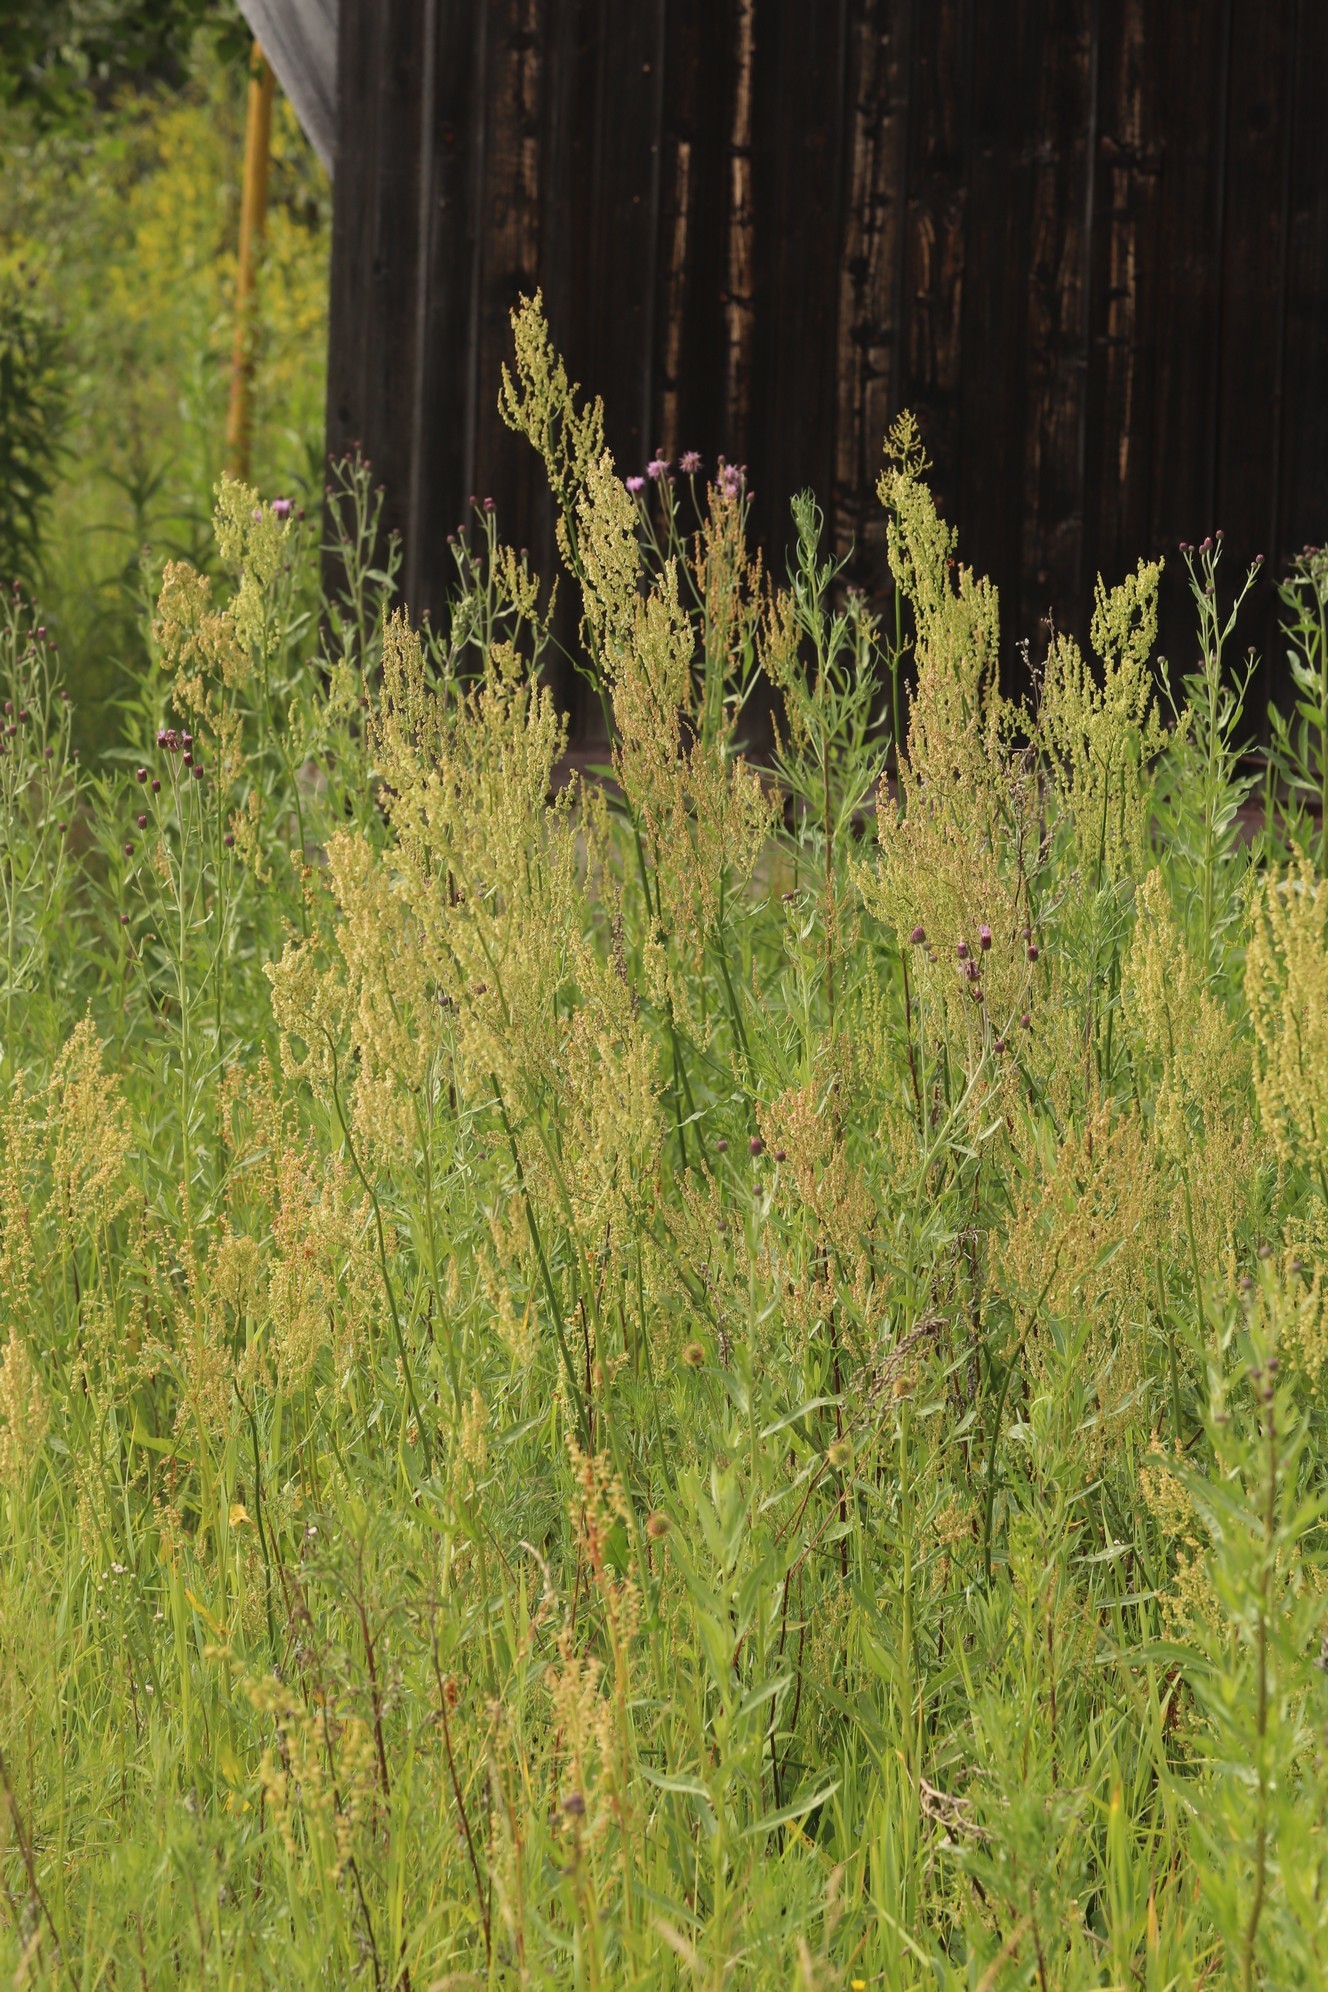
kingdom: Plantae
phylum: Tracheophyta
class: Magnoliopsida
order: Caryophyllales
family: Polygonaceae
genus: Rumex
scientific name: Rumex acetosa
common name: Garden sorrel
